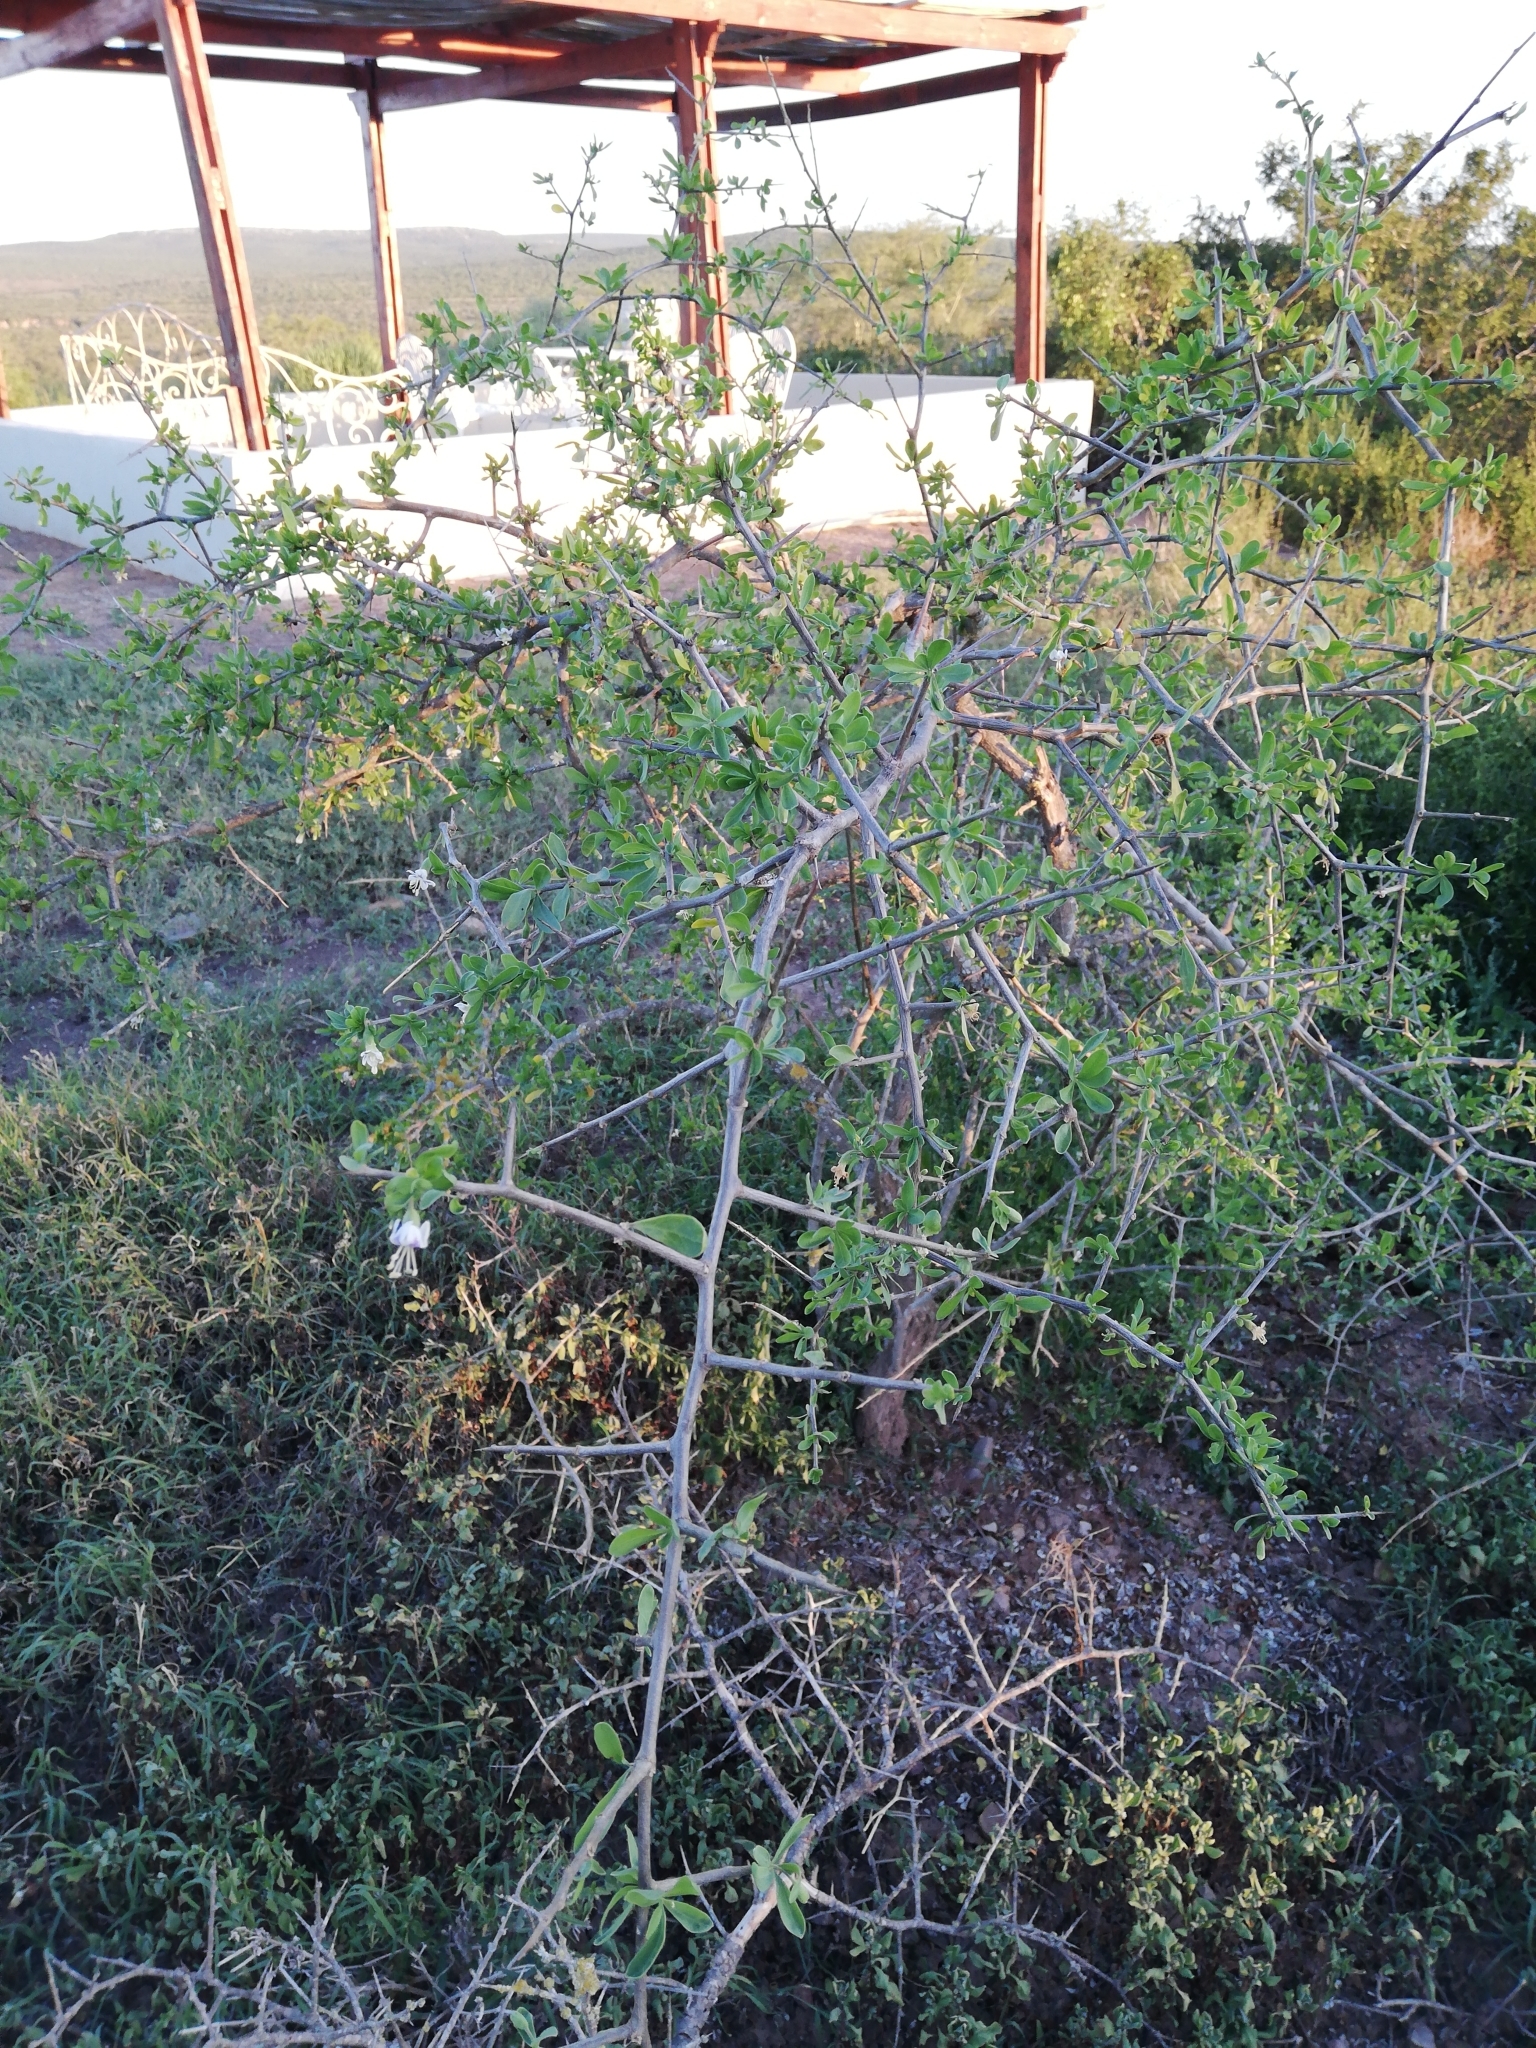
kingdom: Plantae
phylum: Tracheophyta
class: Magnoliopsida
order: Solanales
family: Solanaceae
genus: Lycium
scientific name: Lycium ferocissimum
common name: African boxthorn
